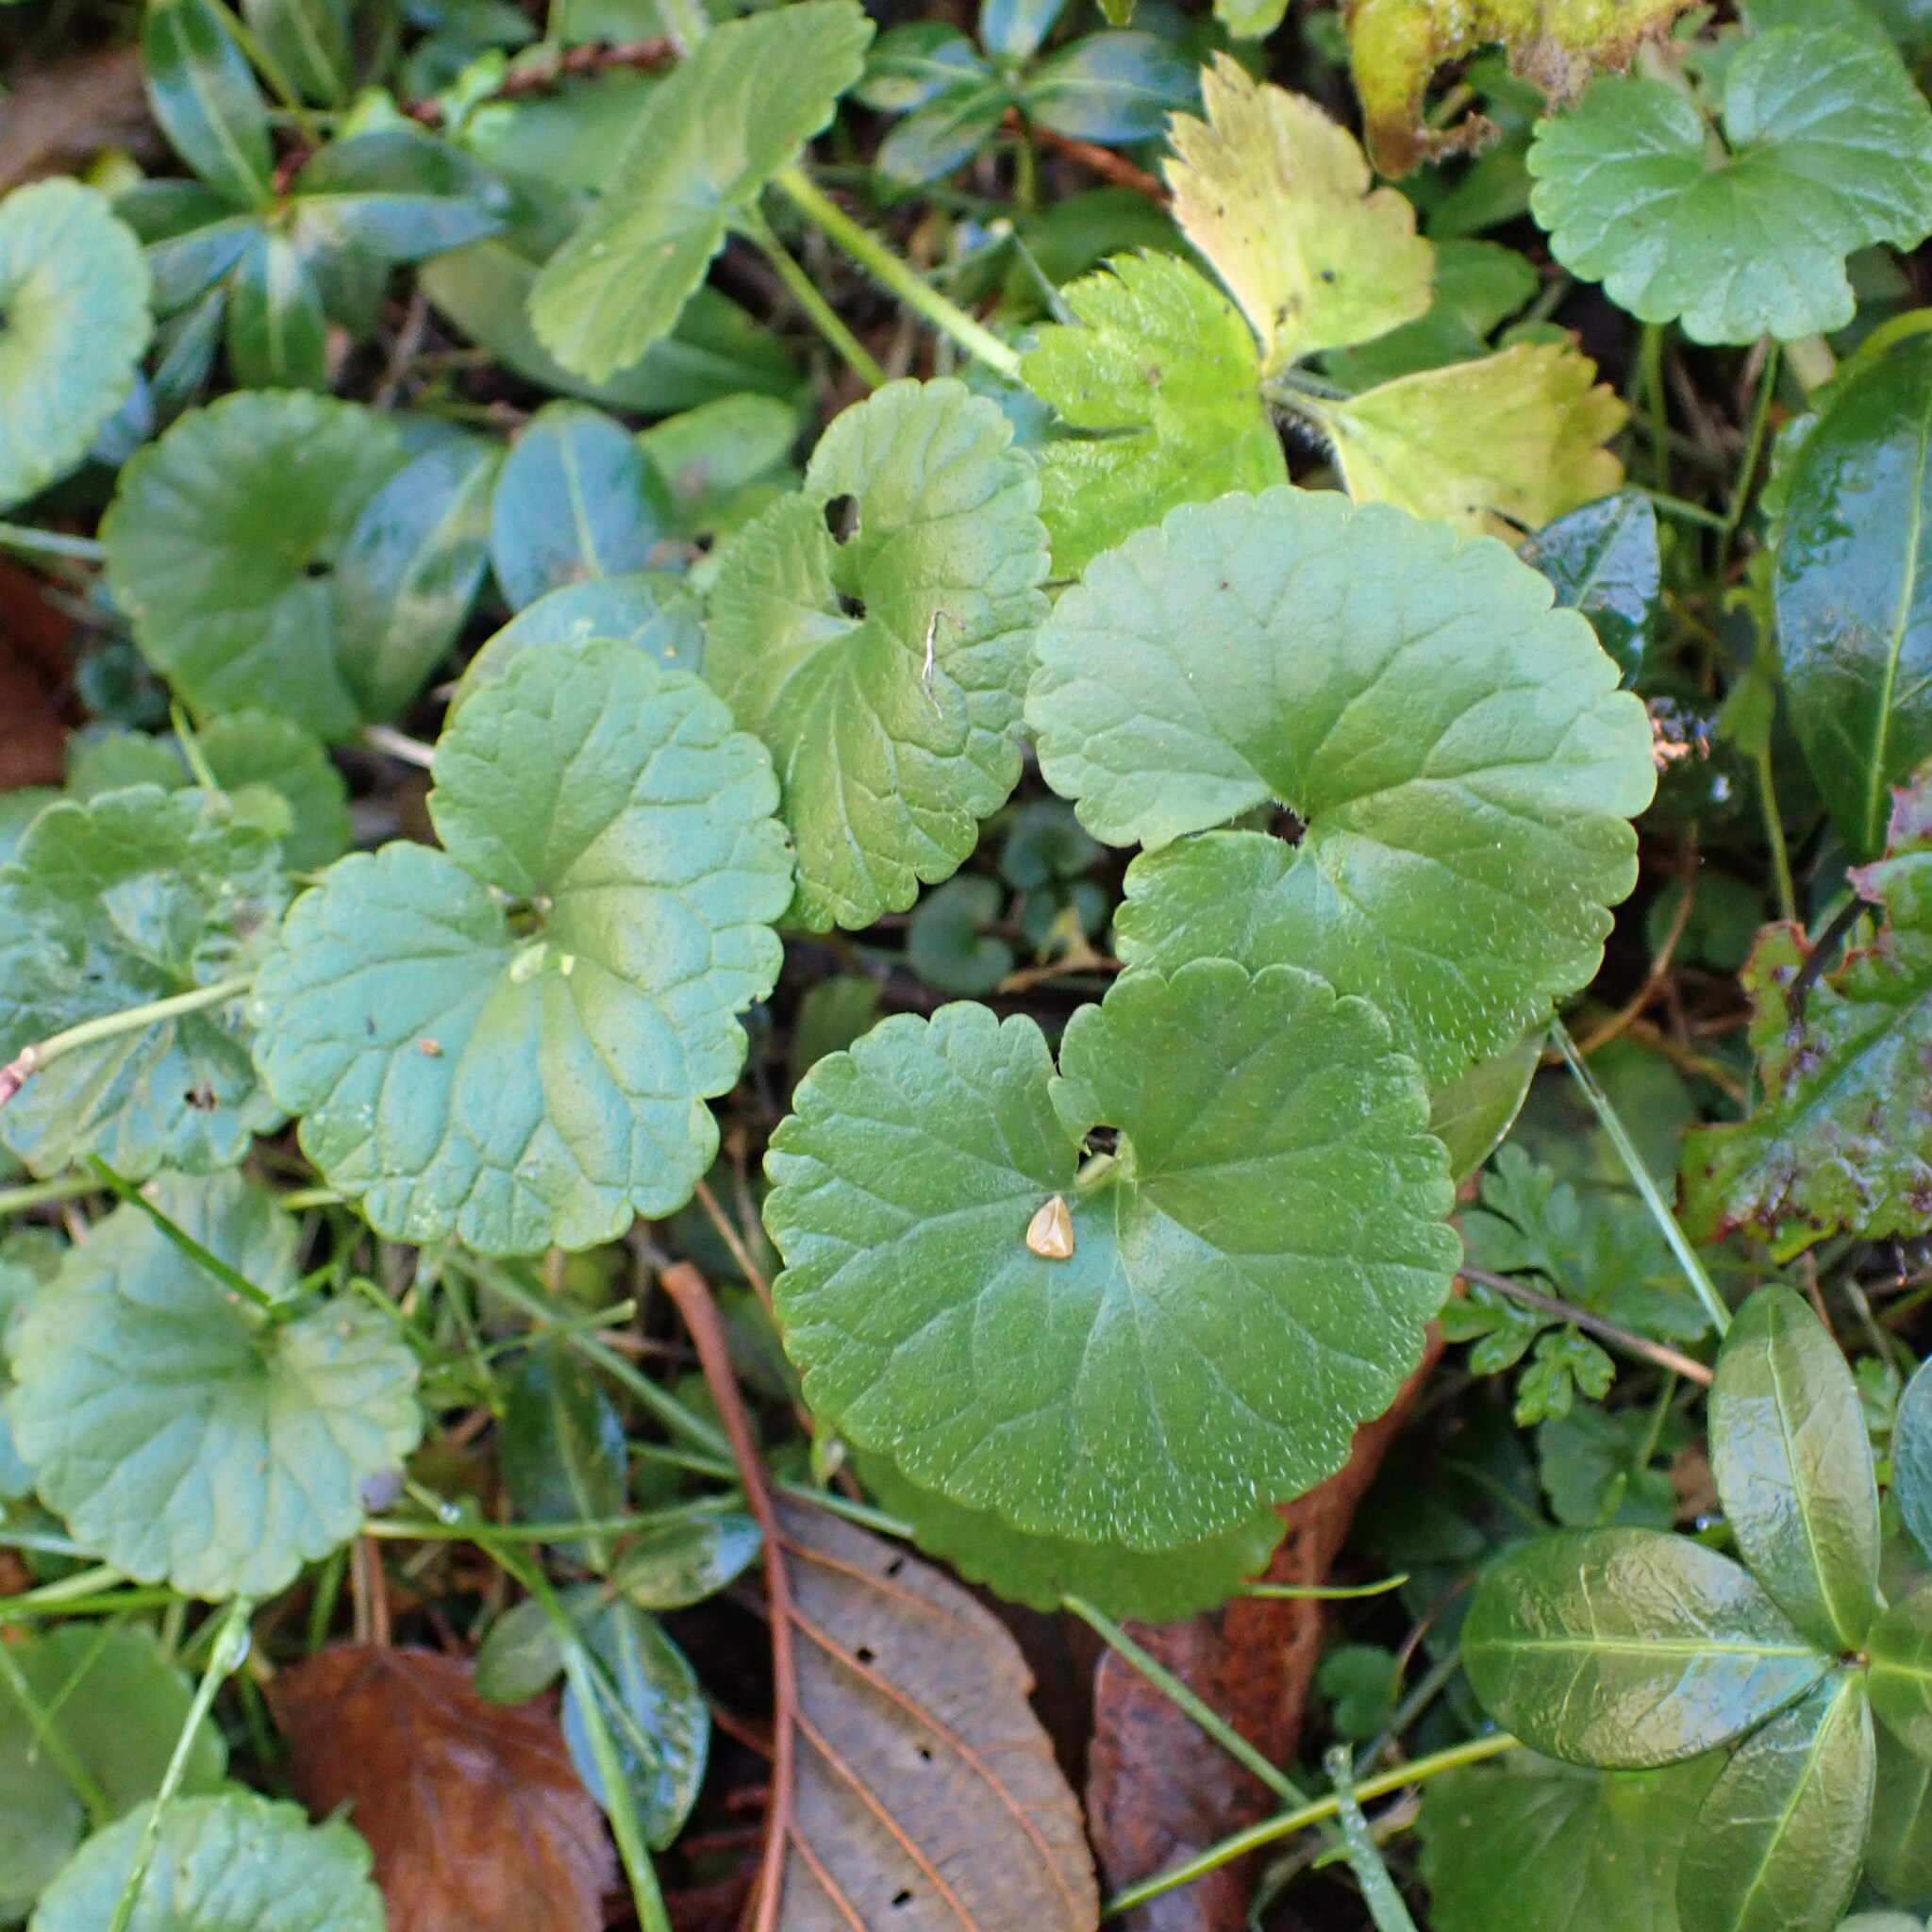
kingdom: Plantae
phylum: Tracheophyta
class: Magnoliopsida
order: Lamiales
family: Lamiaceae
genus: Glechoma
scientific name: Glechoma hederacea
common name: Ground ivy
